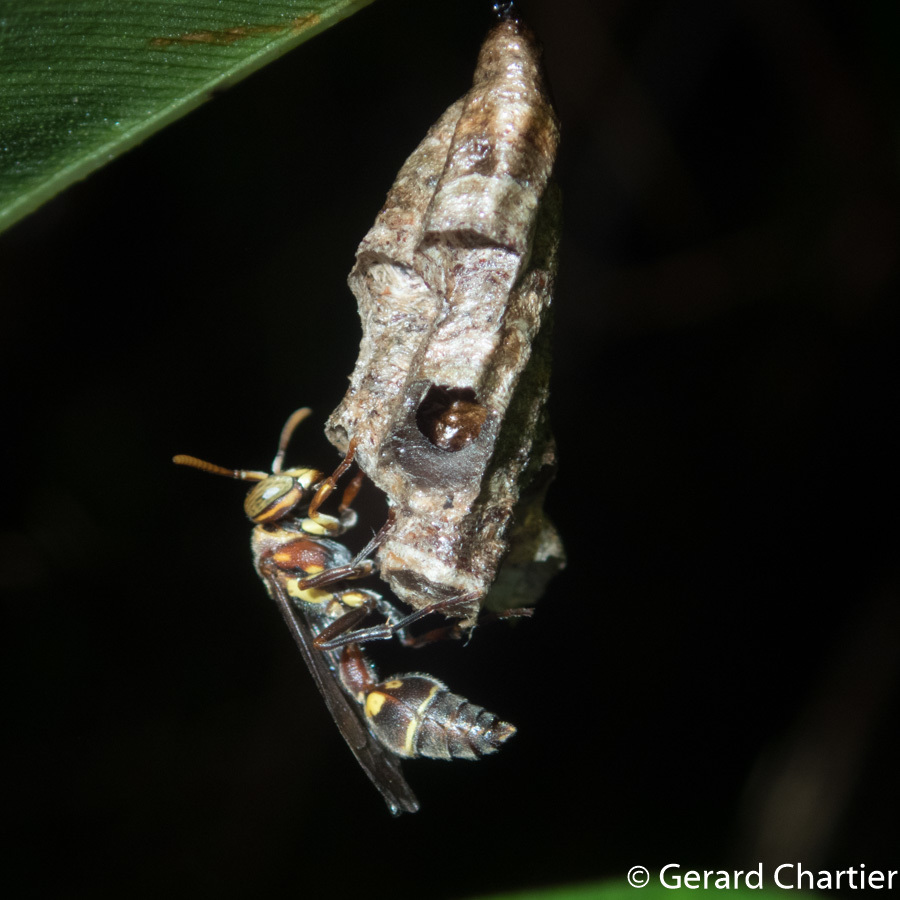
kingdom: Animalia
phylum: Arthropoda
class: Insecta
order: Hymenoptera
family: Vespidae
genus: Ropalidia
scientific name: Ropalidia stigma
